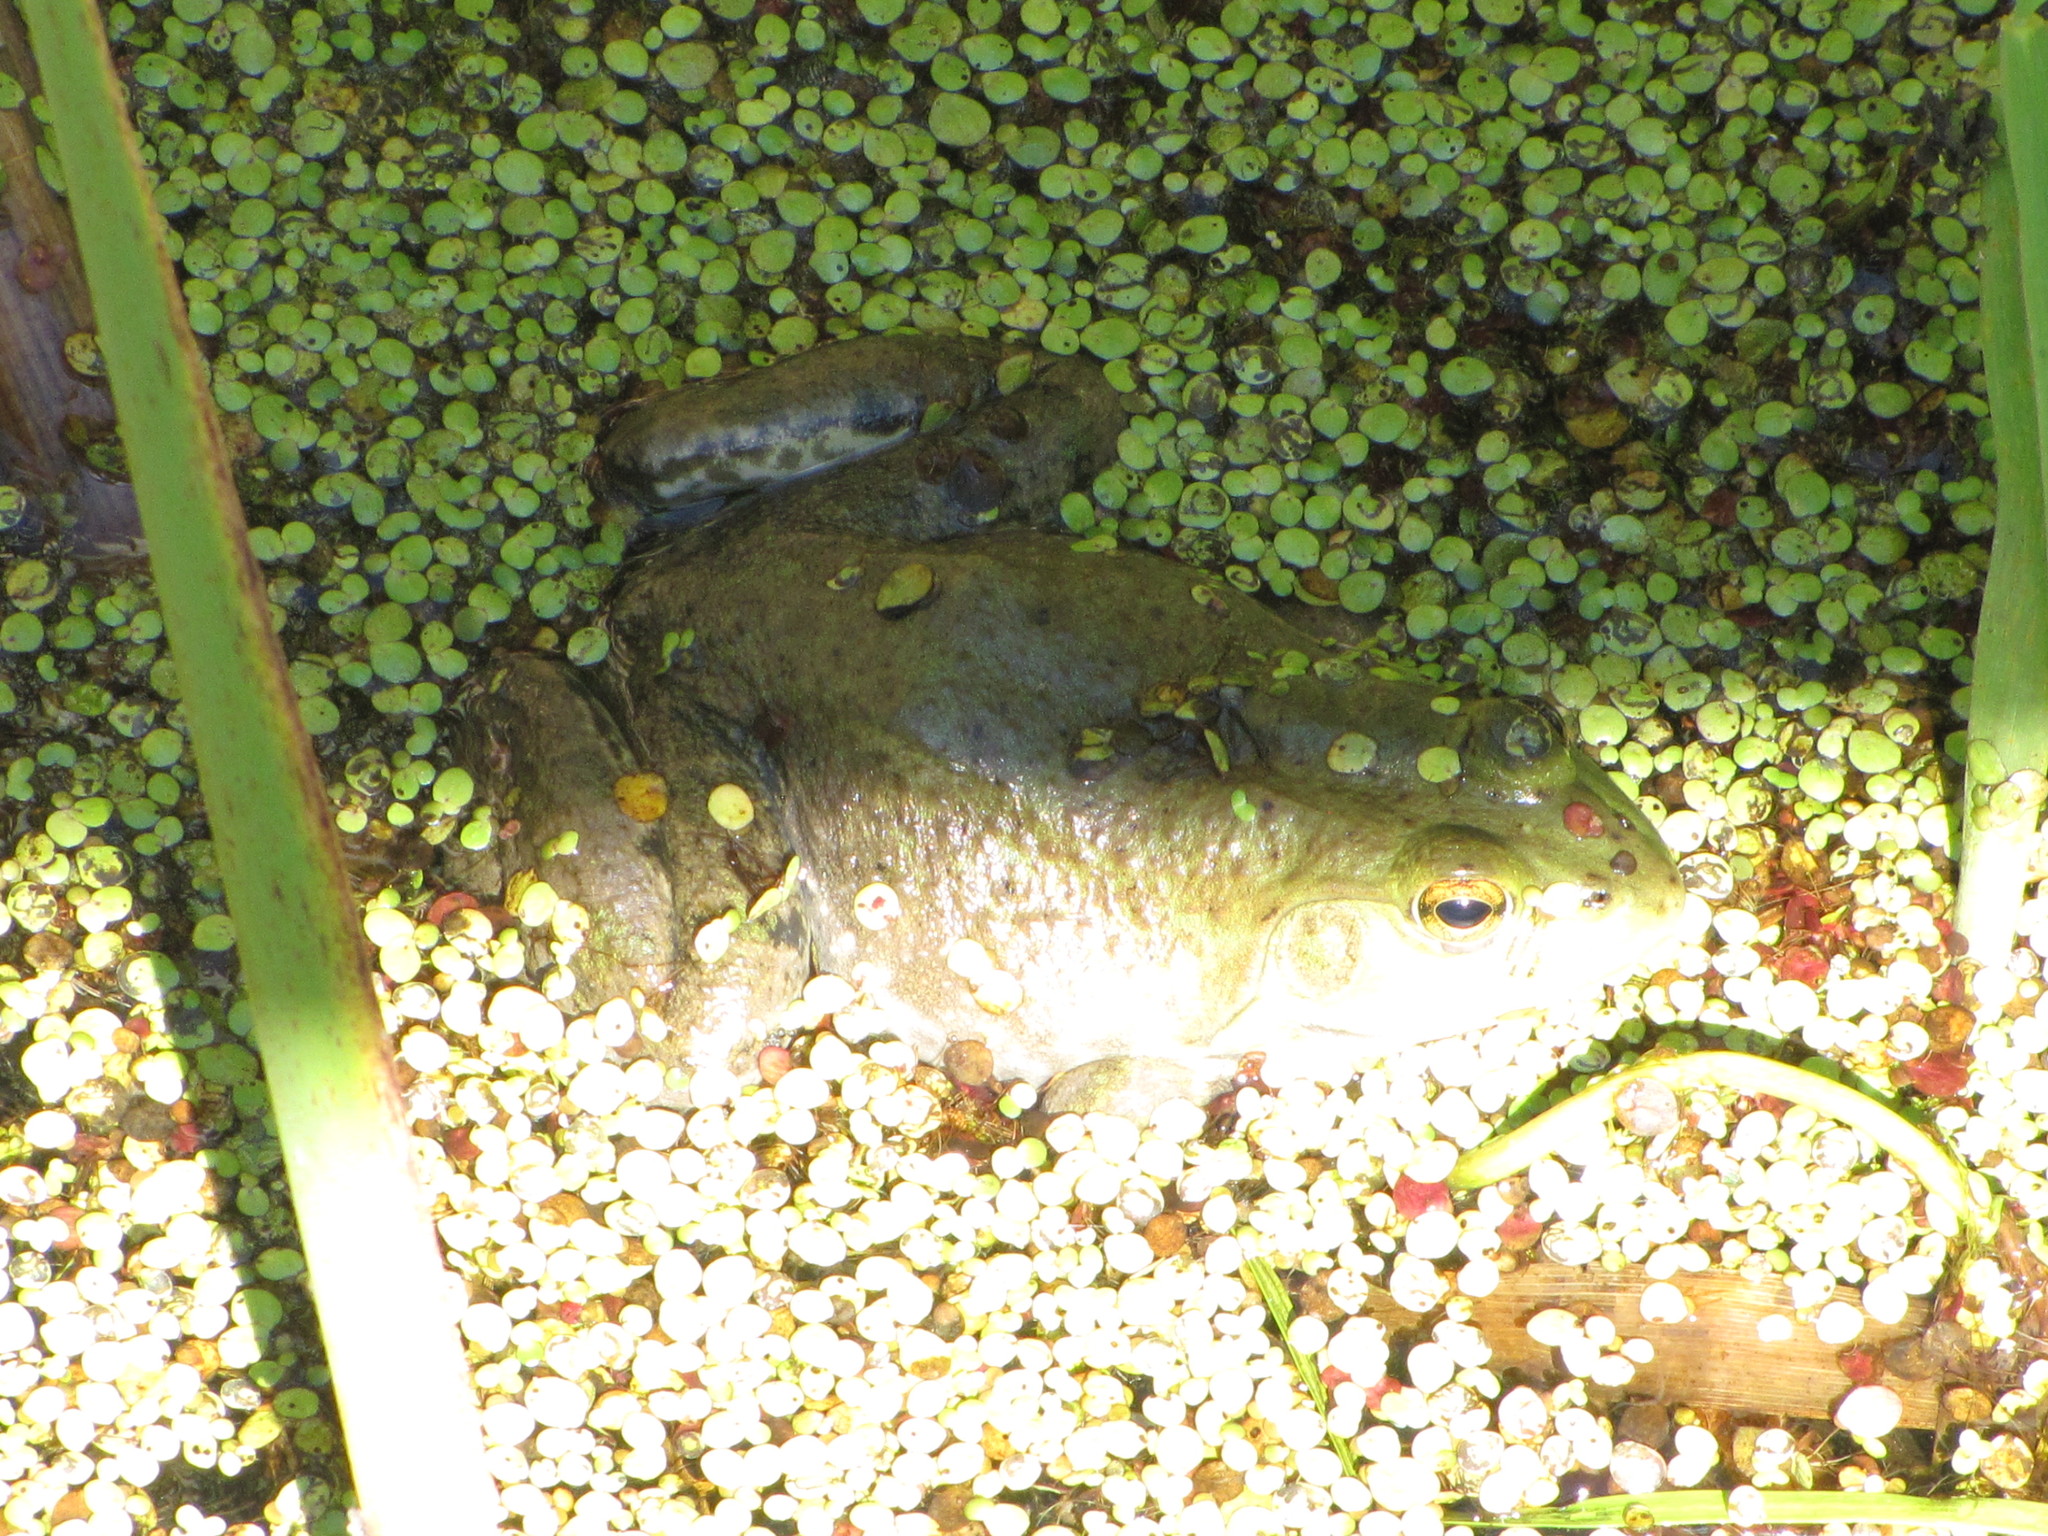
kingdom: Animalia
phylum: Chordata
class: Amphibia
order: Anura
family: Ranidae
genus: Lithobates
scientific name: Lithobates catesbeianus
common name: American bullfrog
